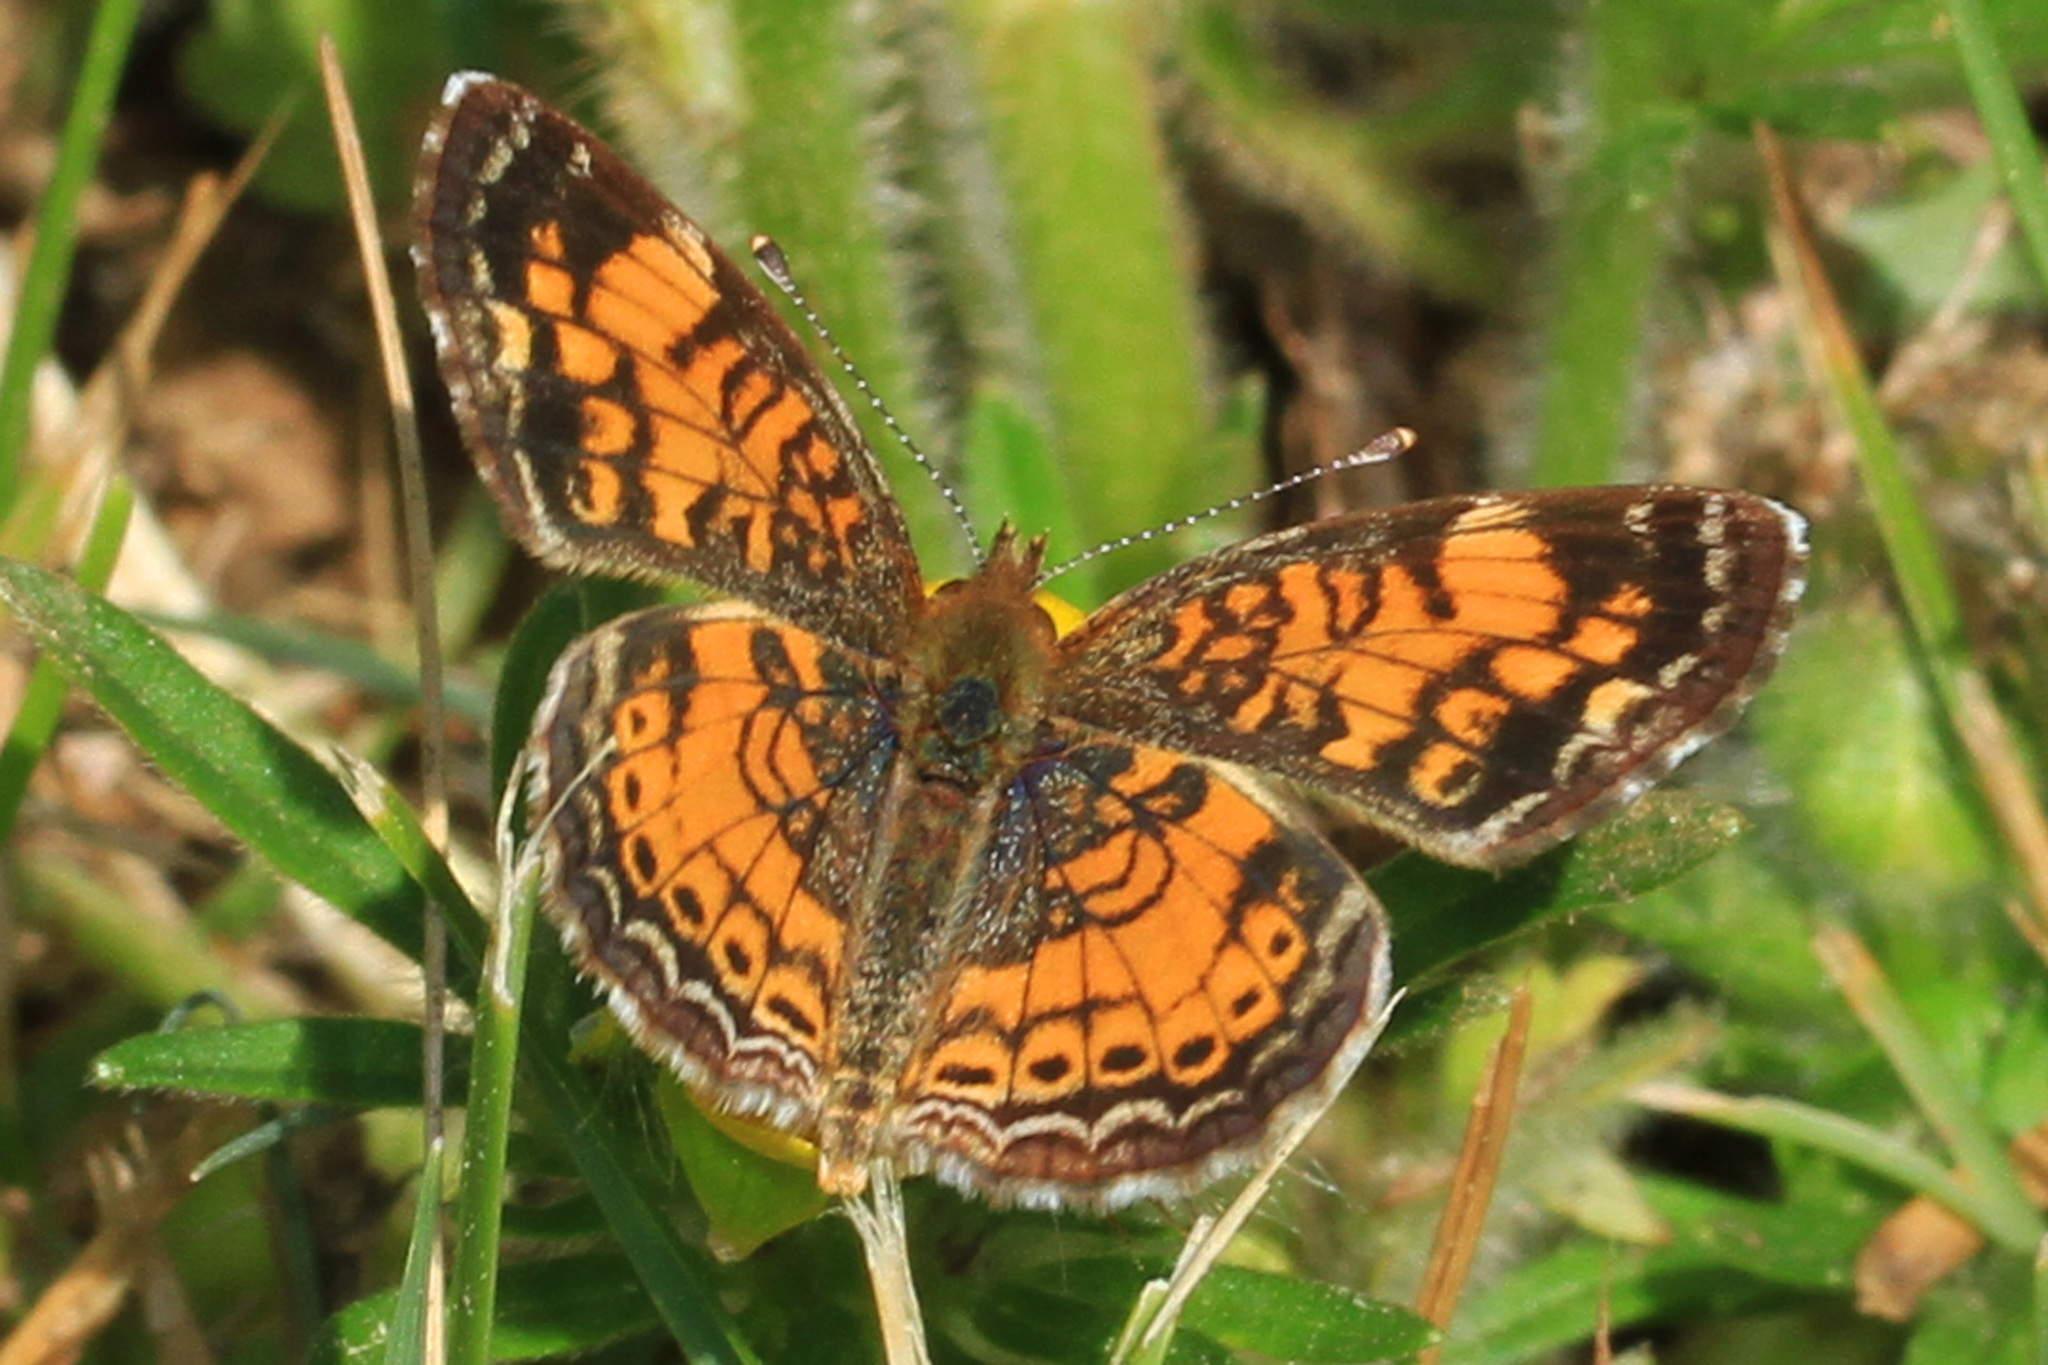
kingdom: Animalia
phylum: Arthropoda
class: Insecta
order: Lepidoptera
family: Nymphalidae
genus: Phyciodes
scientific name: Phyciodes tharos
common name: Pearl crescent
